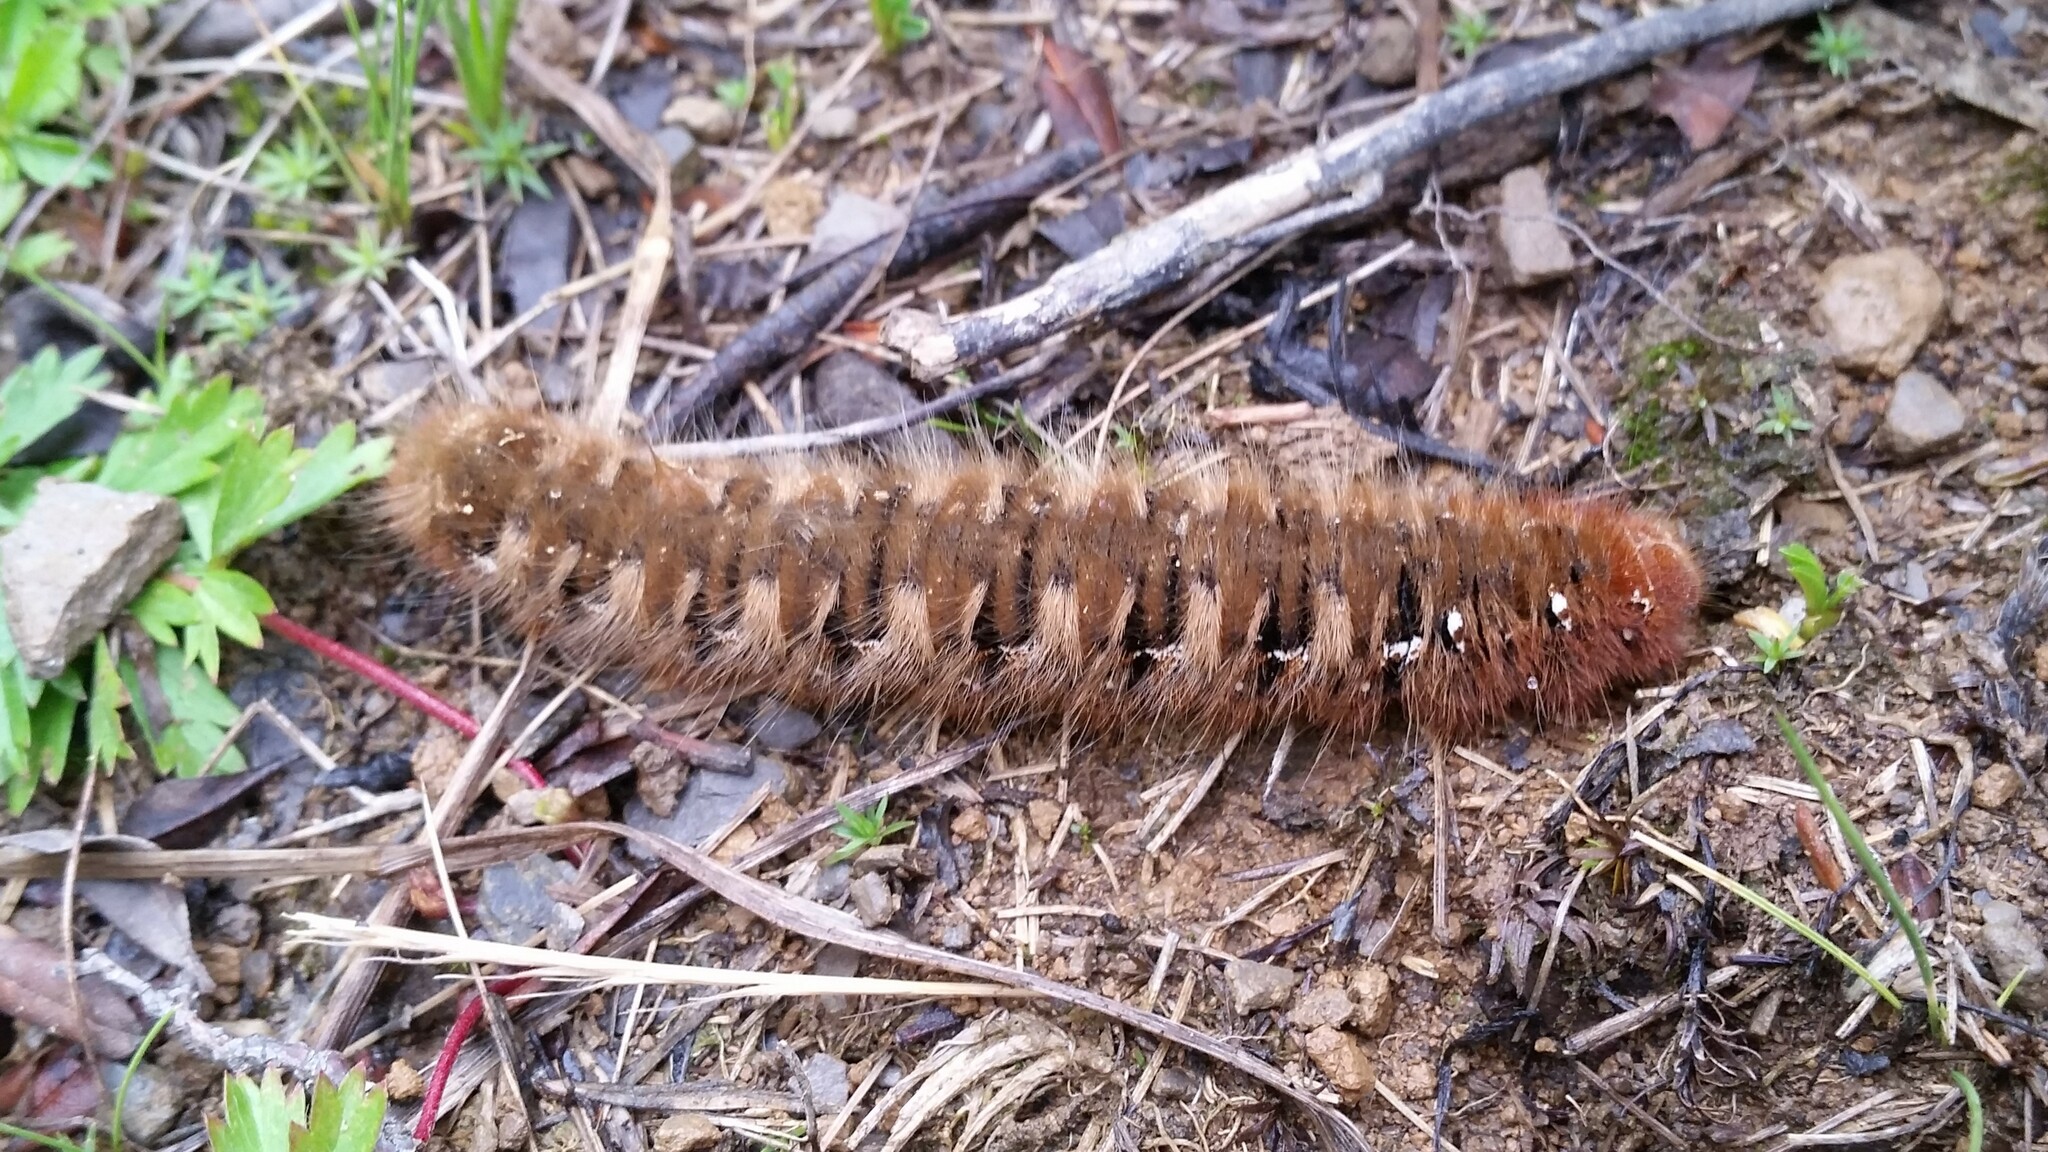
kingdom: Animalia
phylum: Arthropoda
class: Insecta
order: Lepidoptera
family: Lasiocampidae
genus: Lasiocampa
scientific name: Lasiocampa quercus
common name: Oak eggar
